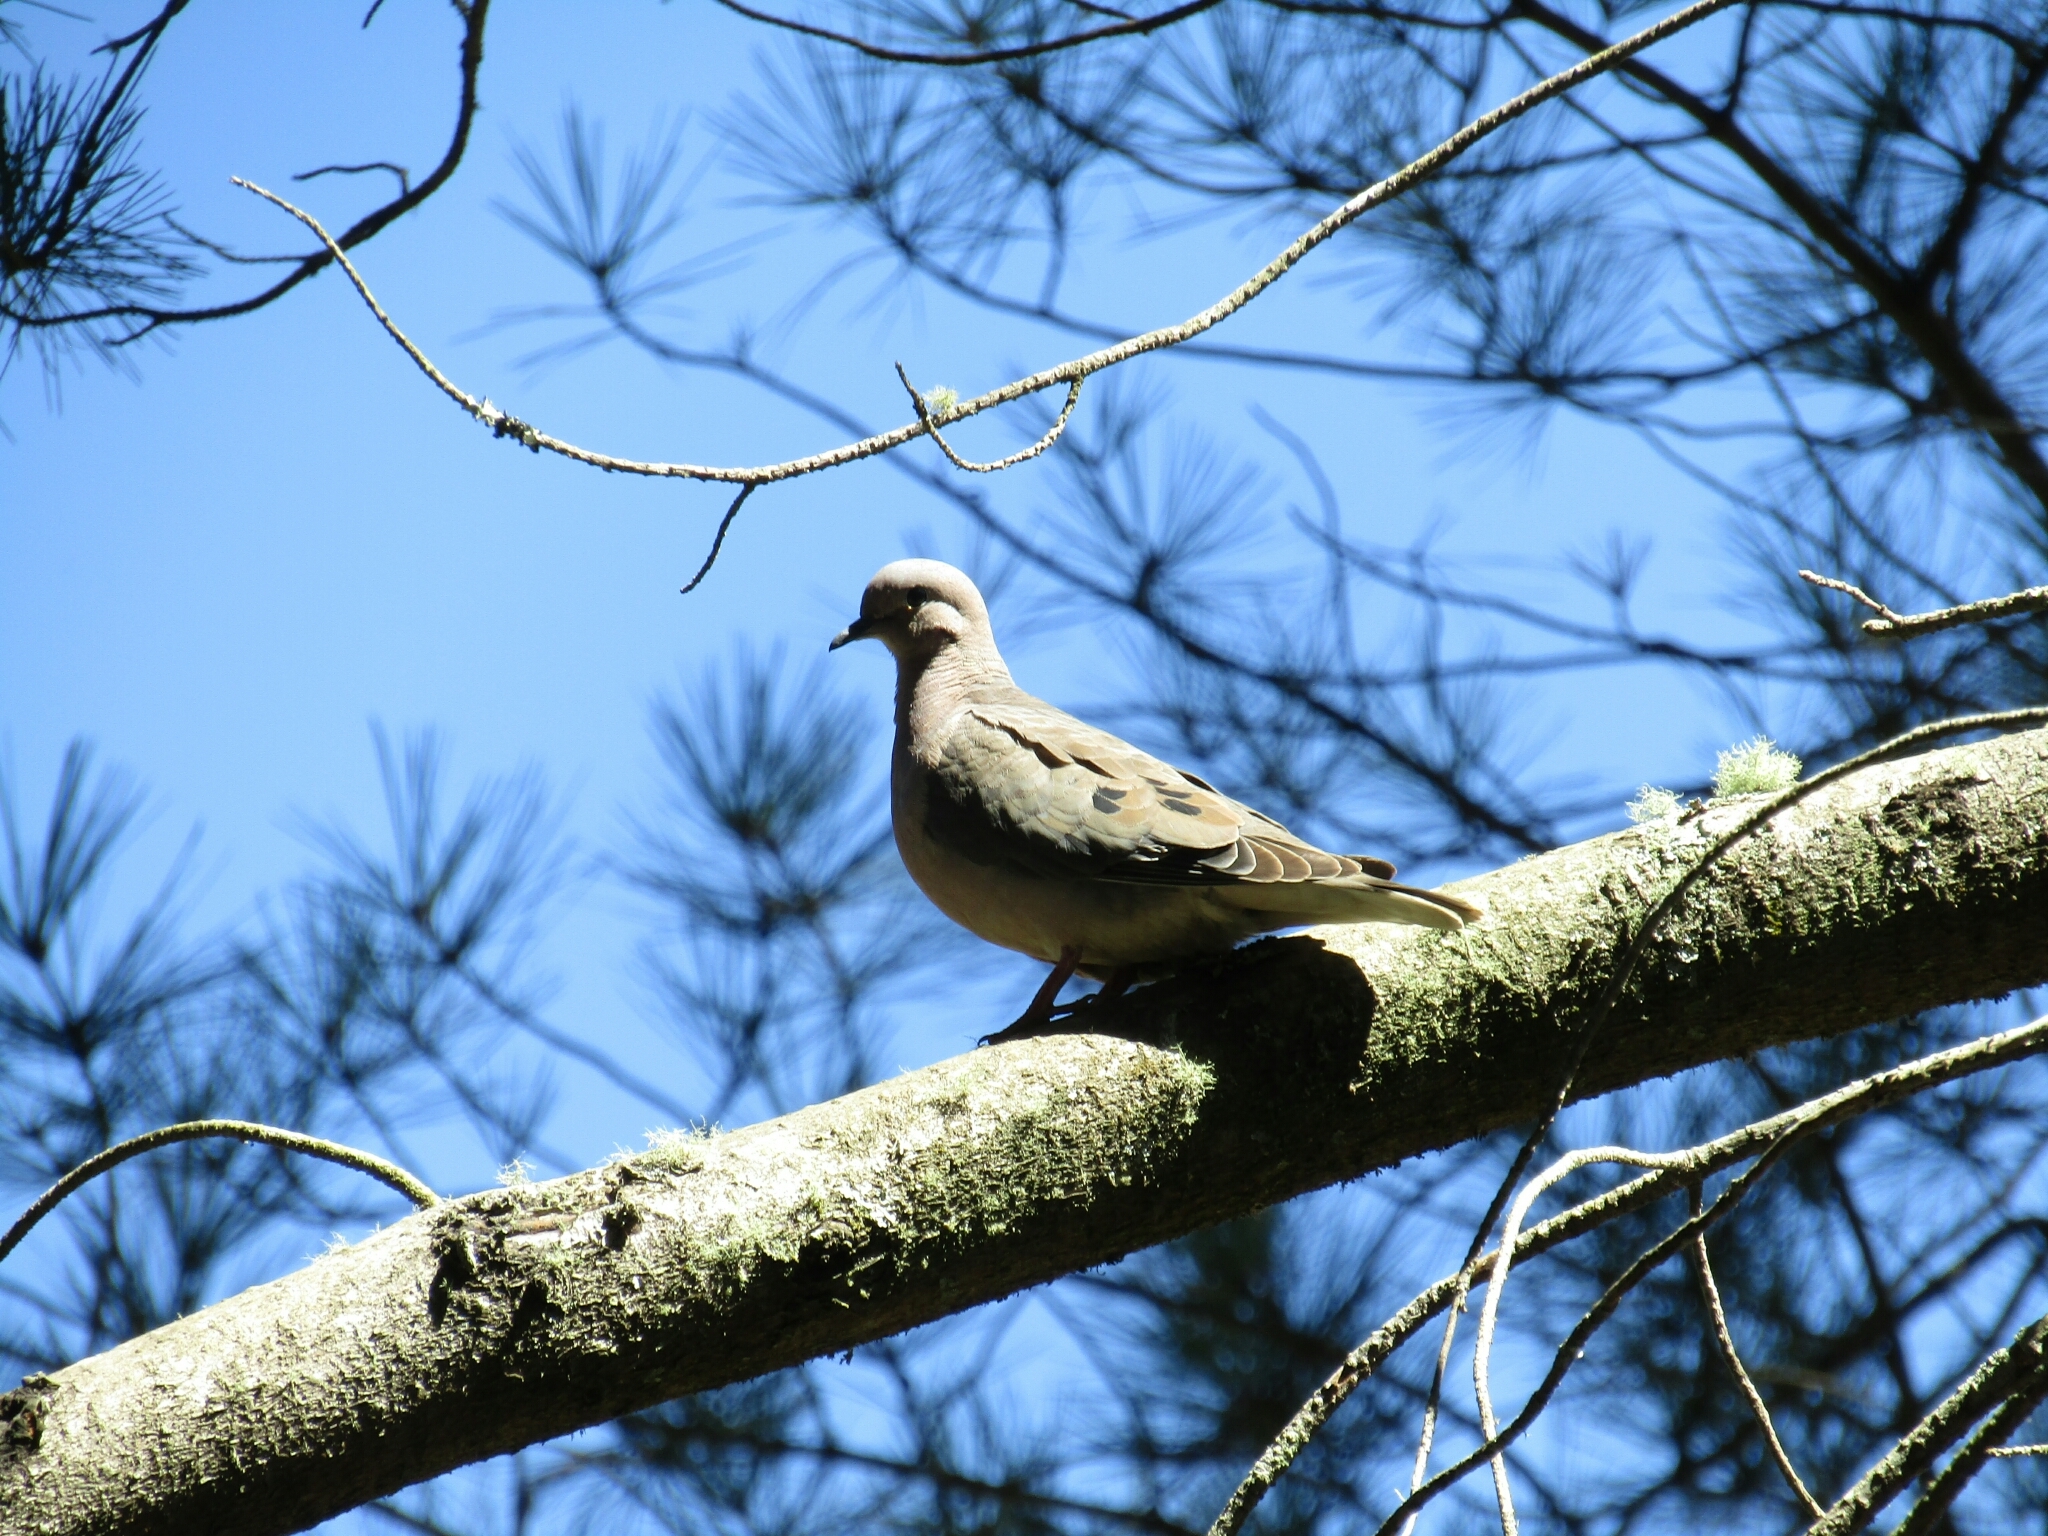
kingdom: Animalia
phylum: Chordata
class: Aves
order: Columbiformes
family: Columbidae
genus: Zenaida
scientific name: Zenaida auriculata
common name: Eared dove
